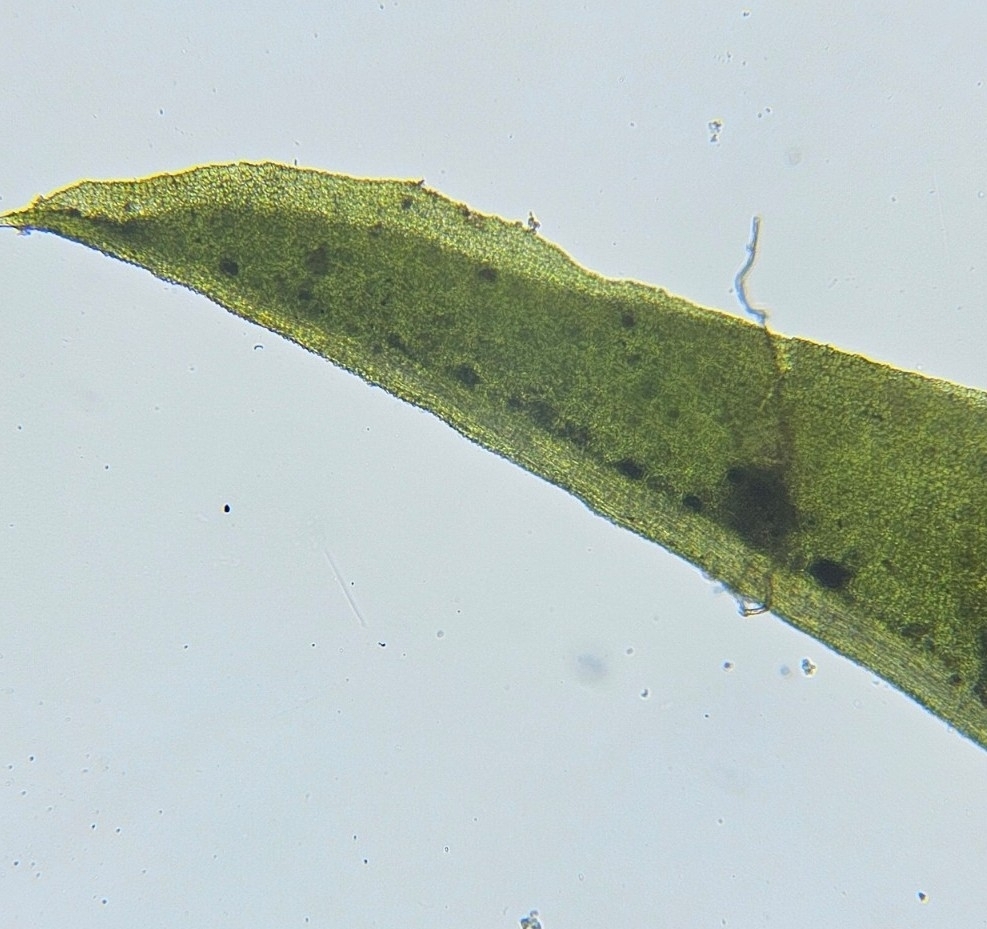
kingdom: Plantae
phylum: Bryophyta
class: Bryopsida
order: Pottiales
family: Pottiaceae
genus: Trichostomum
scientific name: Trichostomum brachydontium
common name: Variable crisp-moss
